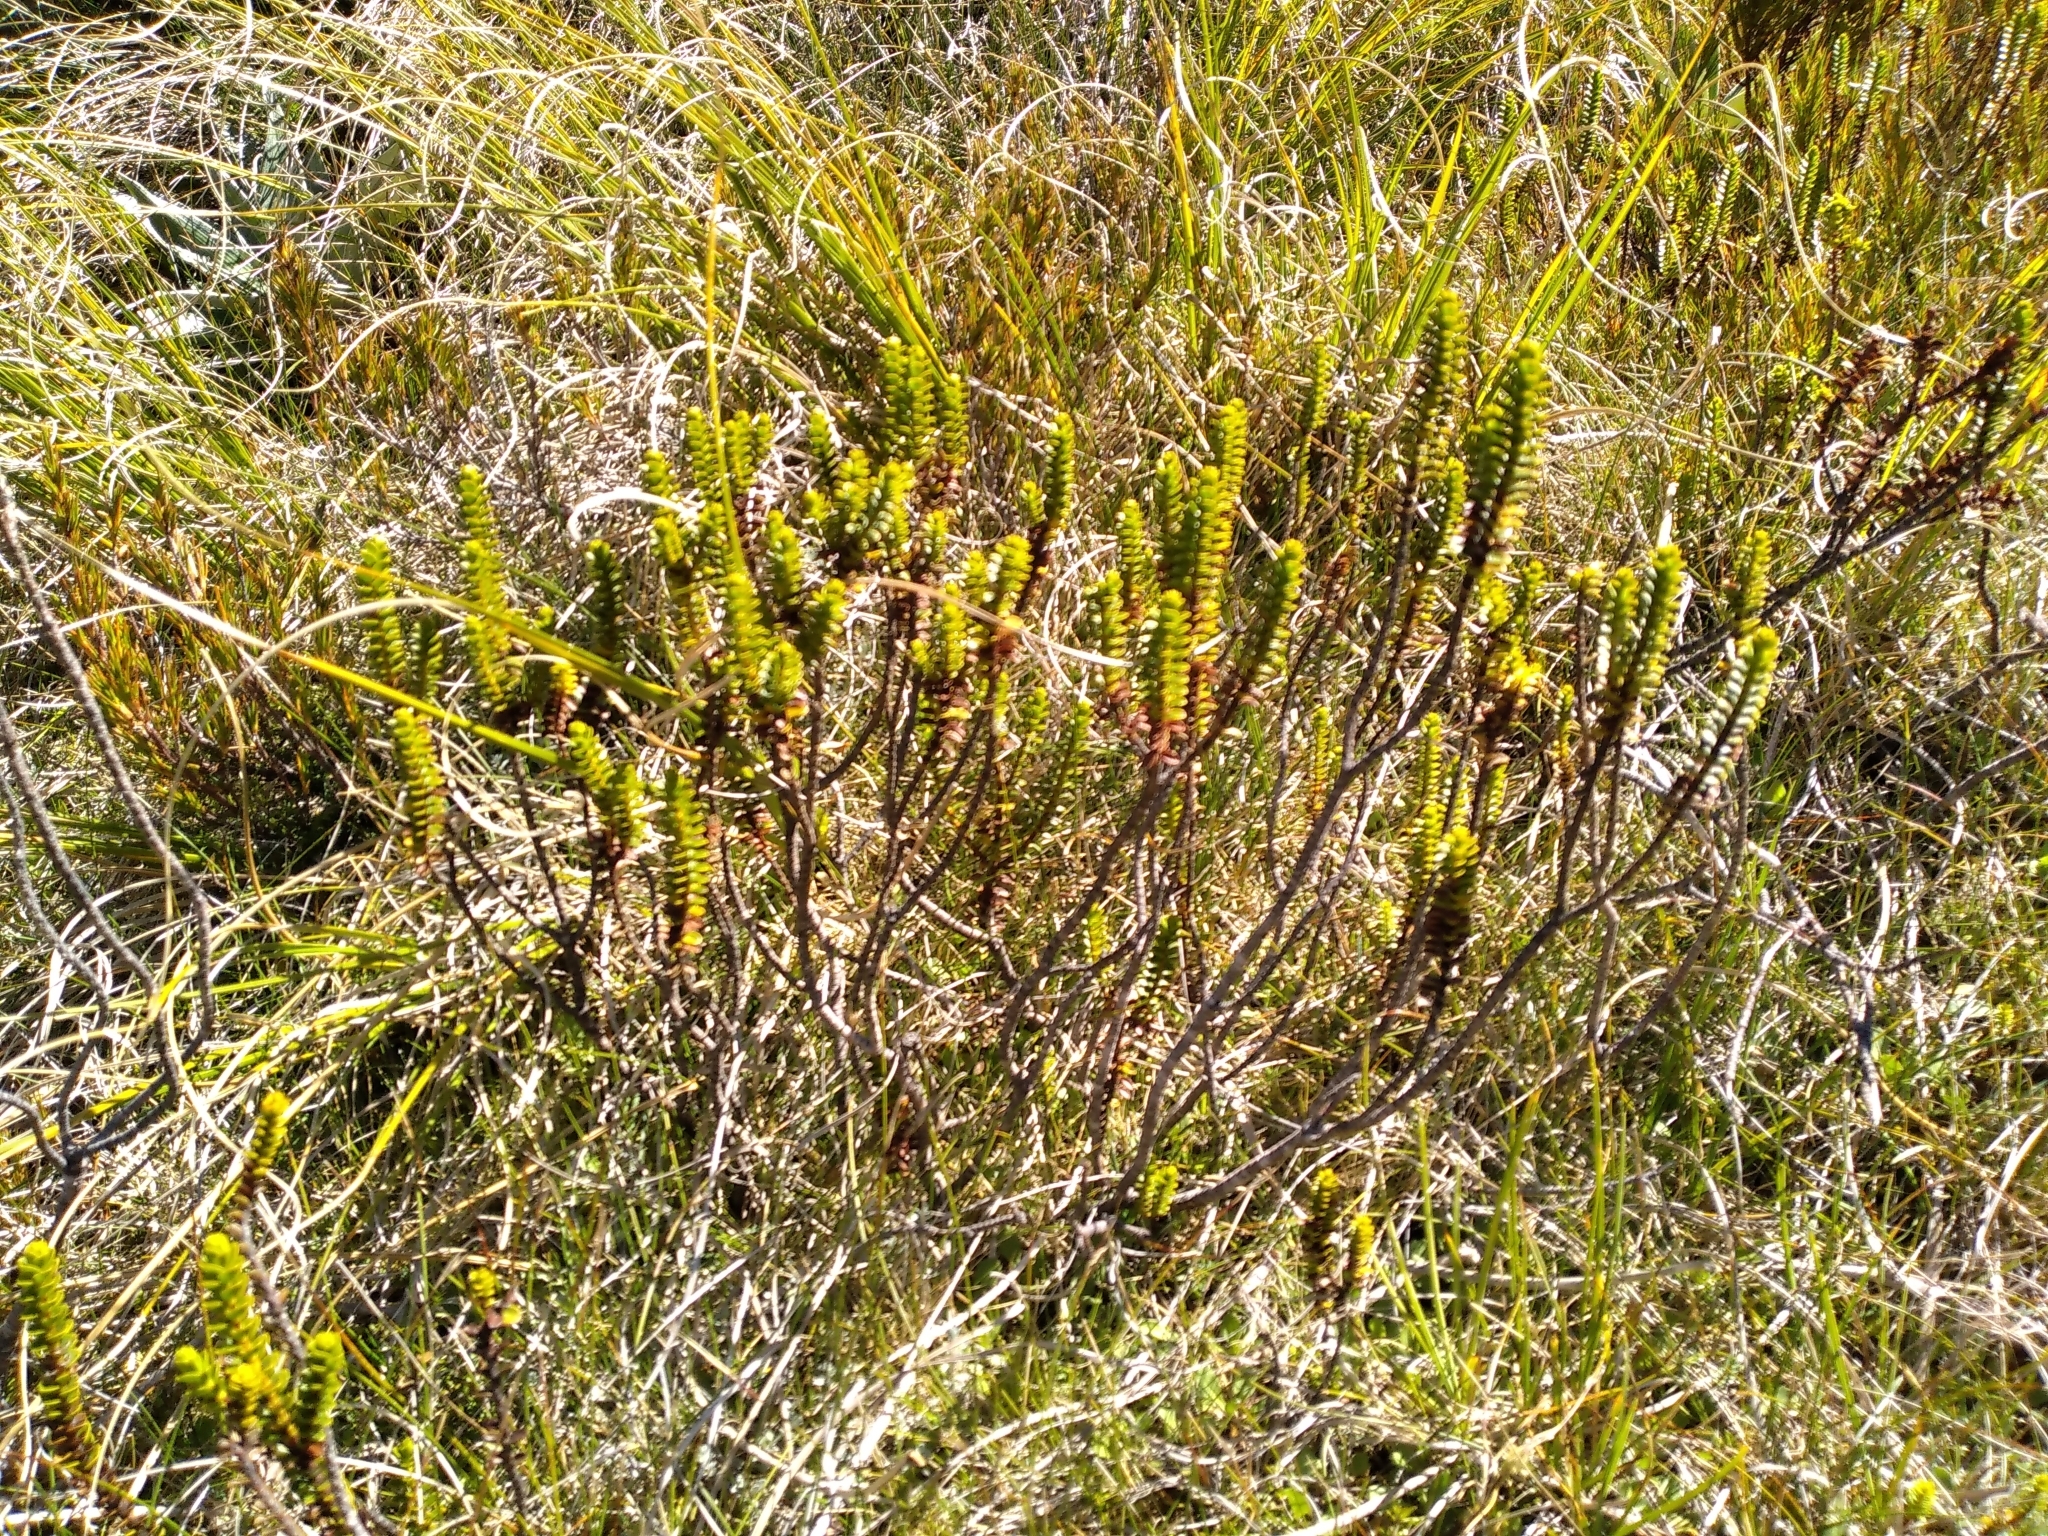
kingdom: Plantae
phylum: Tracheophyta
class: Magnoliopsida
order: Lamiales
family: Plantaginaceae
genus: Veronica
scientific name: Veronica pauciramosa
